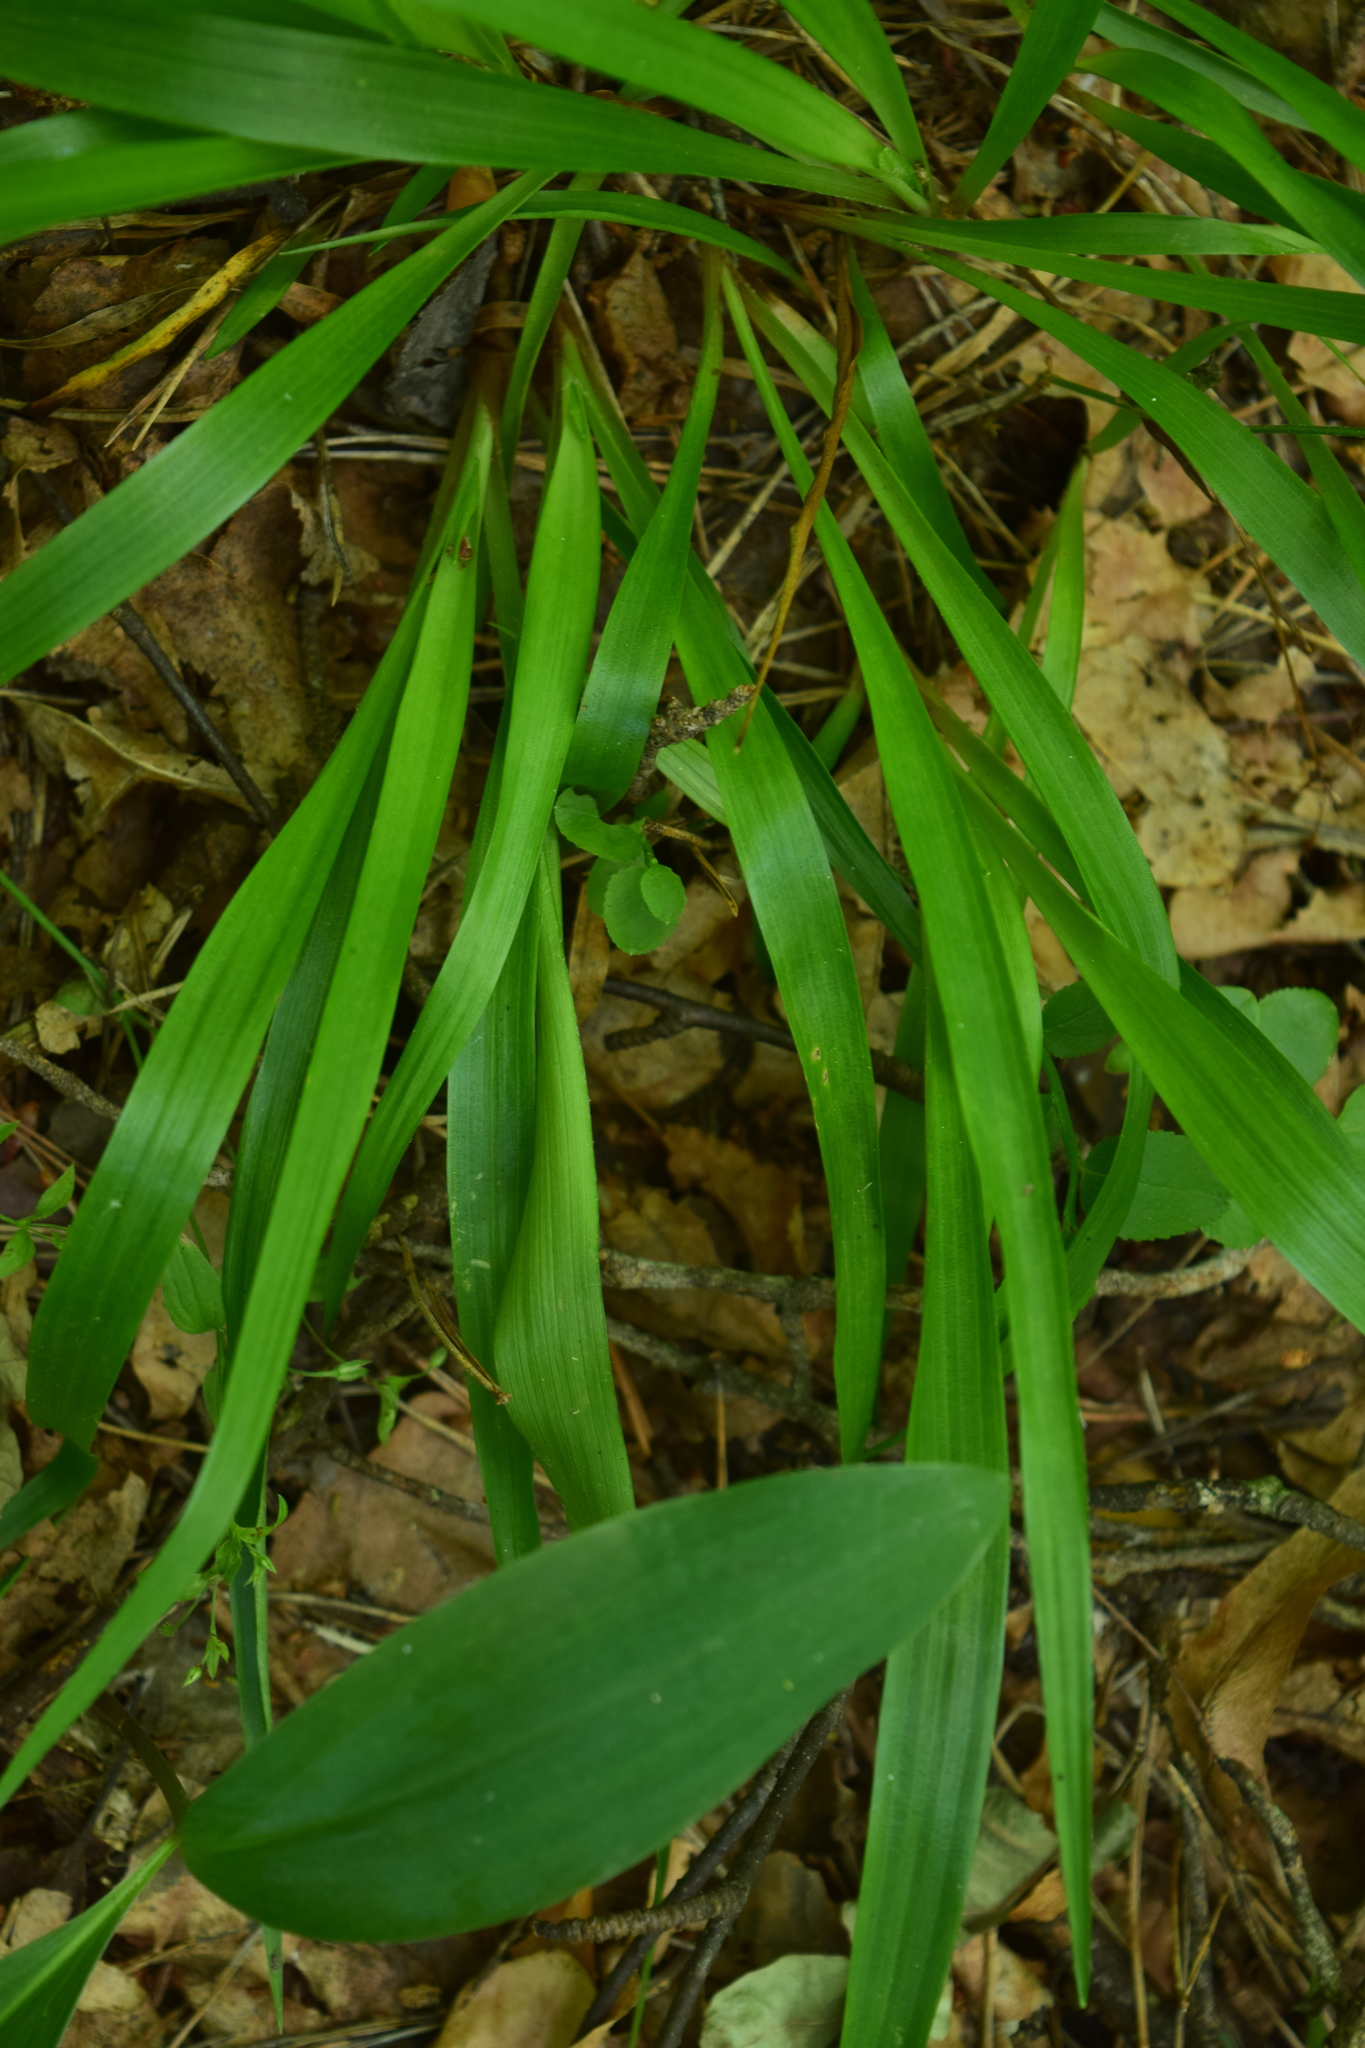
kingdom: Plantae
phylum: Tracheophyta
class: Liliopsida
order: Poales
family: Juncaceae
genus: Luzula
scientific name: Luzula pilosa
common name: Hairy wood-rush
